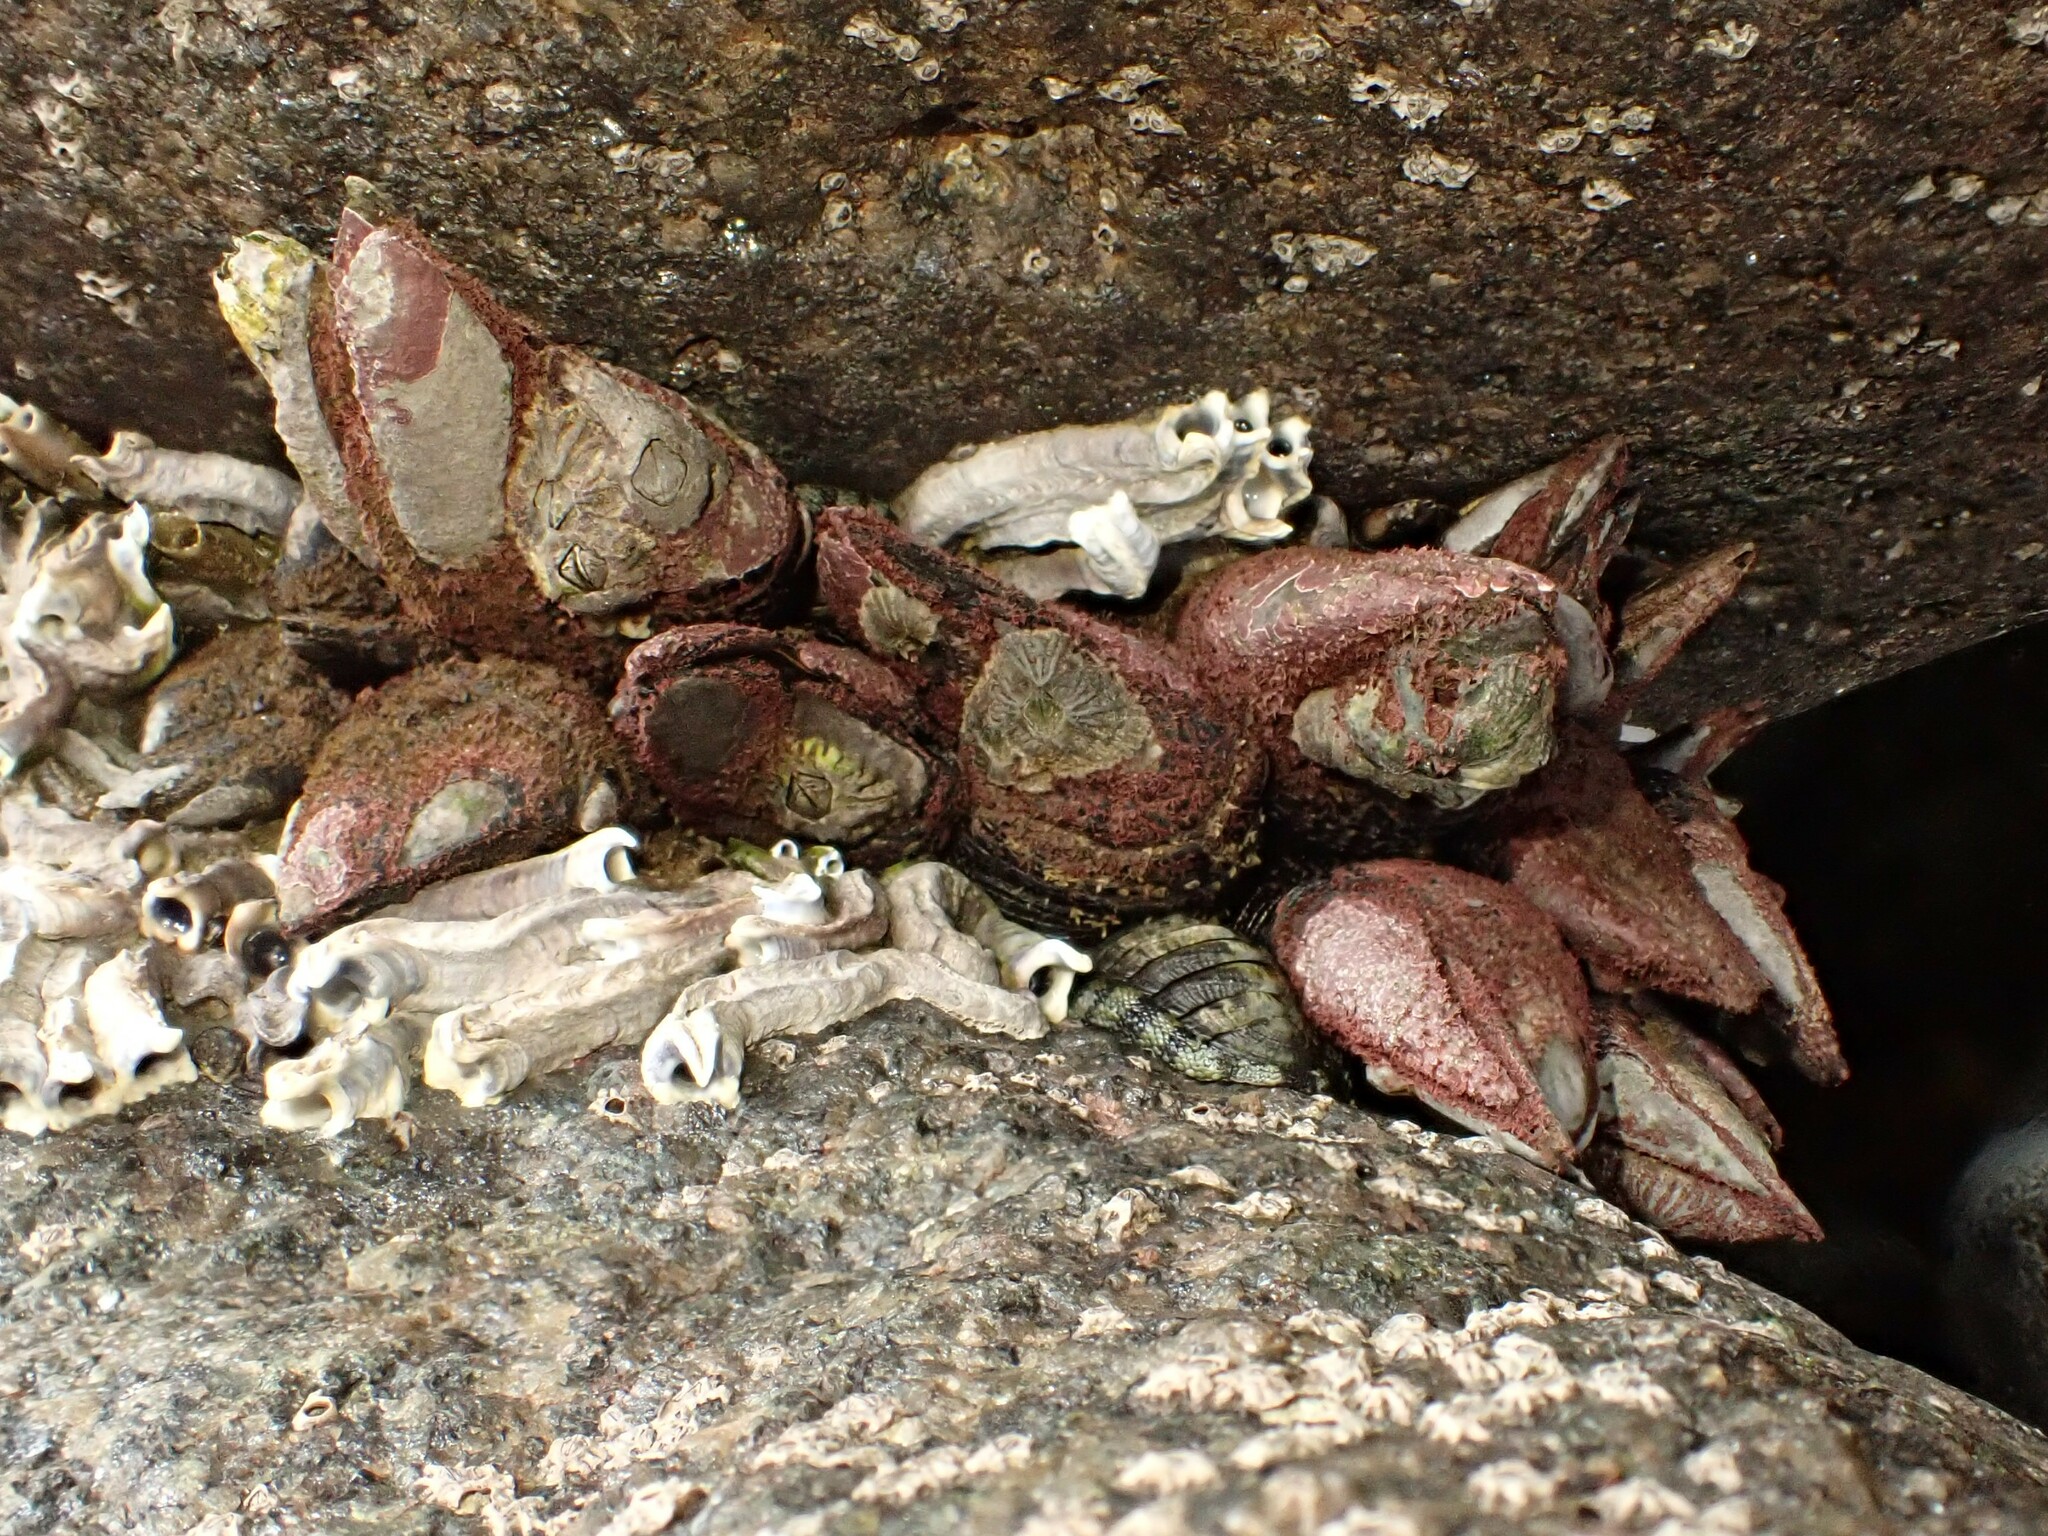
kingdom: Animalia
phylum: Arthropoda
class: Maxillopoda
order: Sessilia
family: Tetraclitidae
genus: Tetraclitella
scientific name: Tetraclitella depressa
